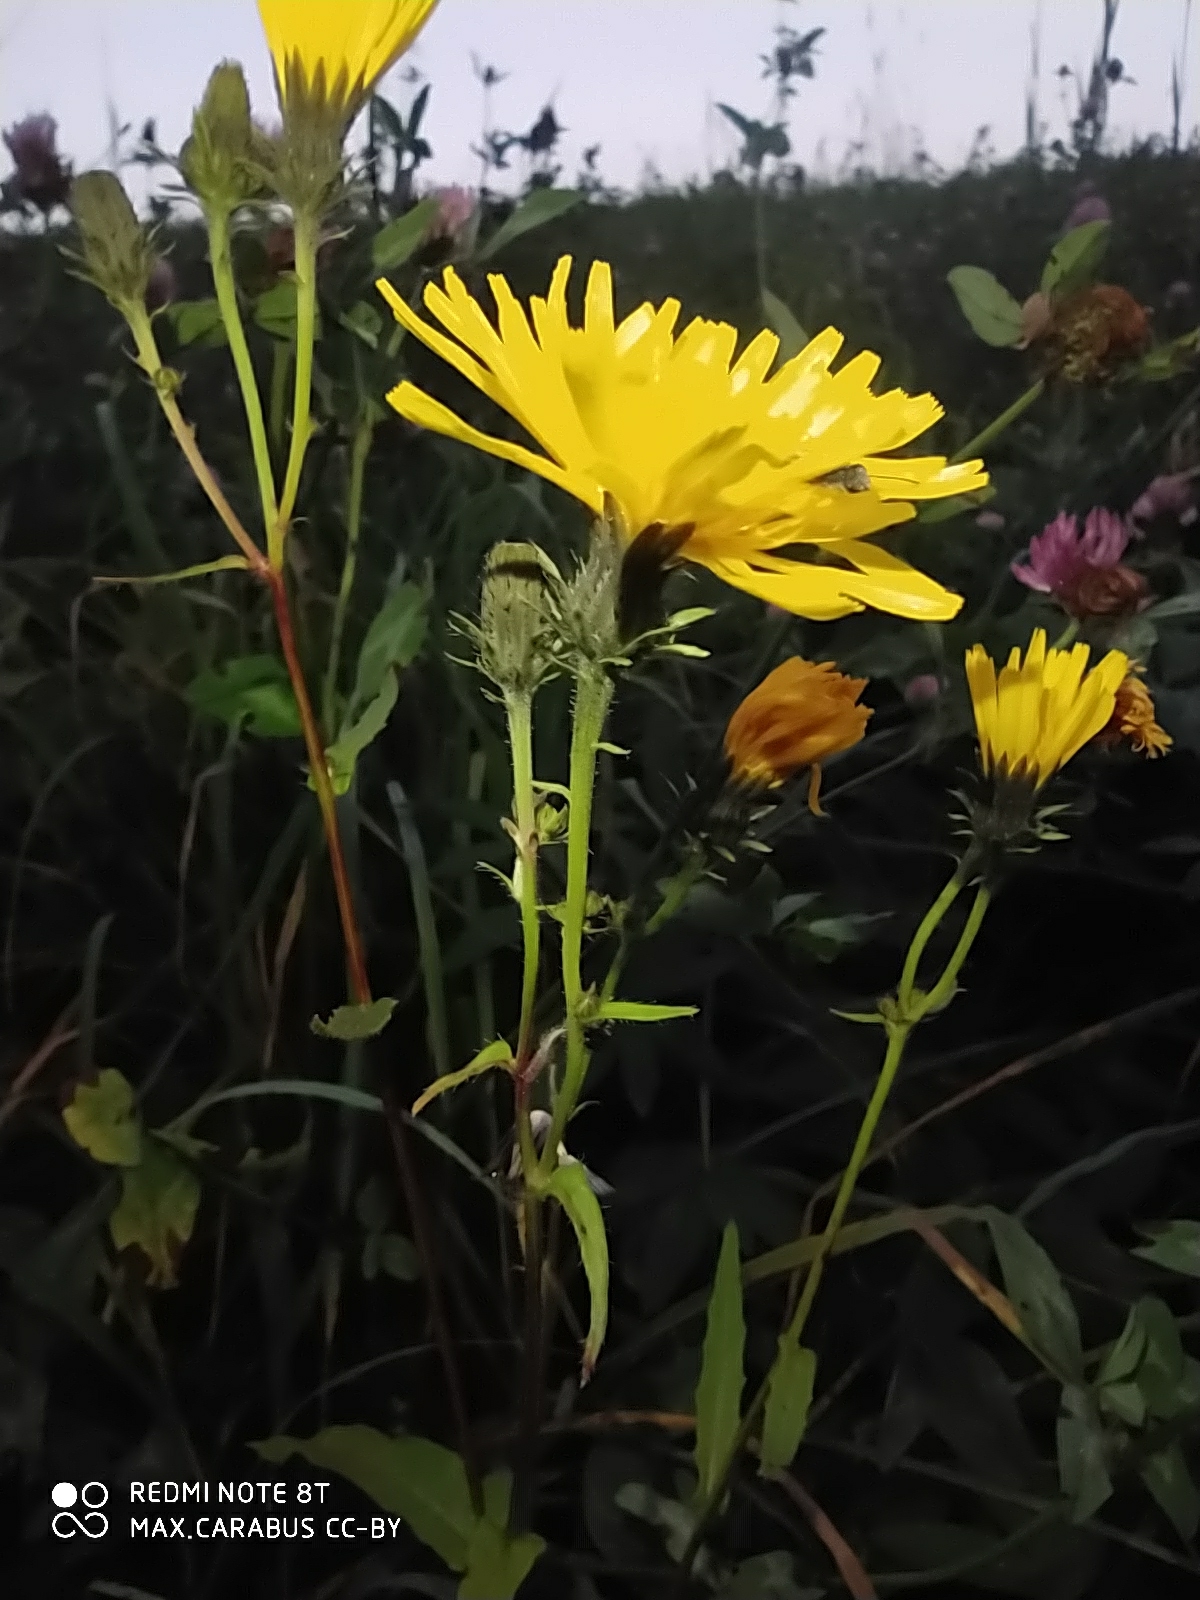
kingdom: Plantae
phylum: Tracheophyta
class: Magnoliopsida
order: Asterales
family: Asteraceae
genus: Picris
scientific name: Picris hieracioides
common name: Hawkweed oxtongue
